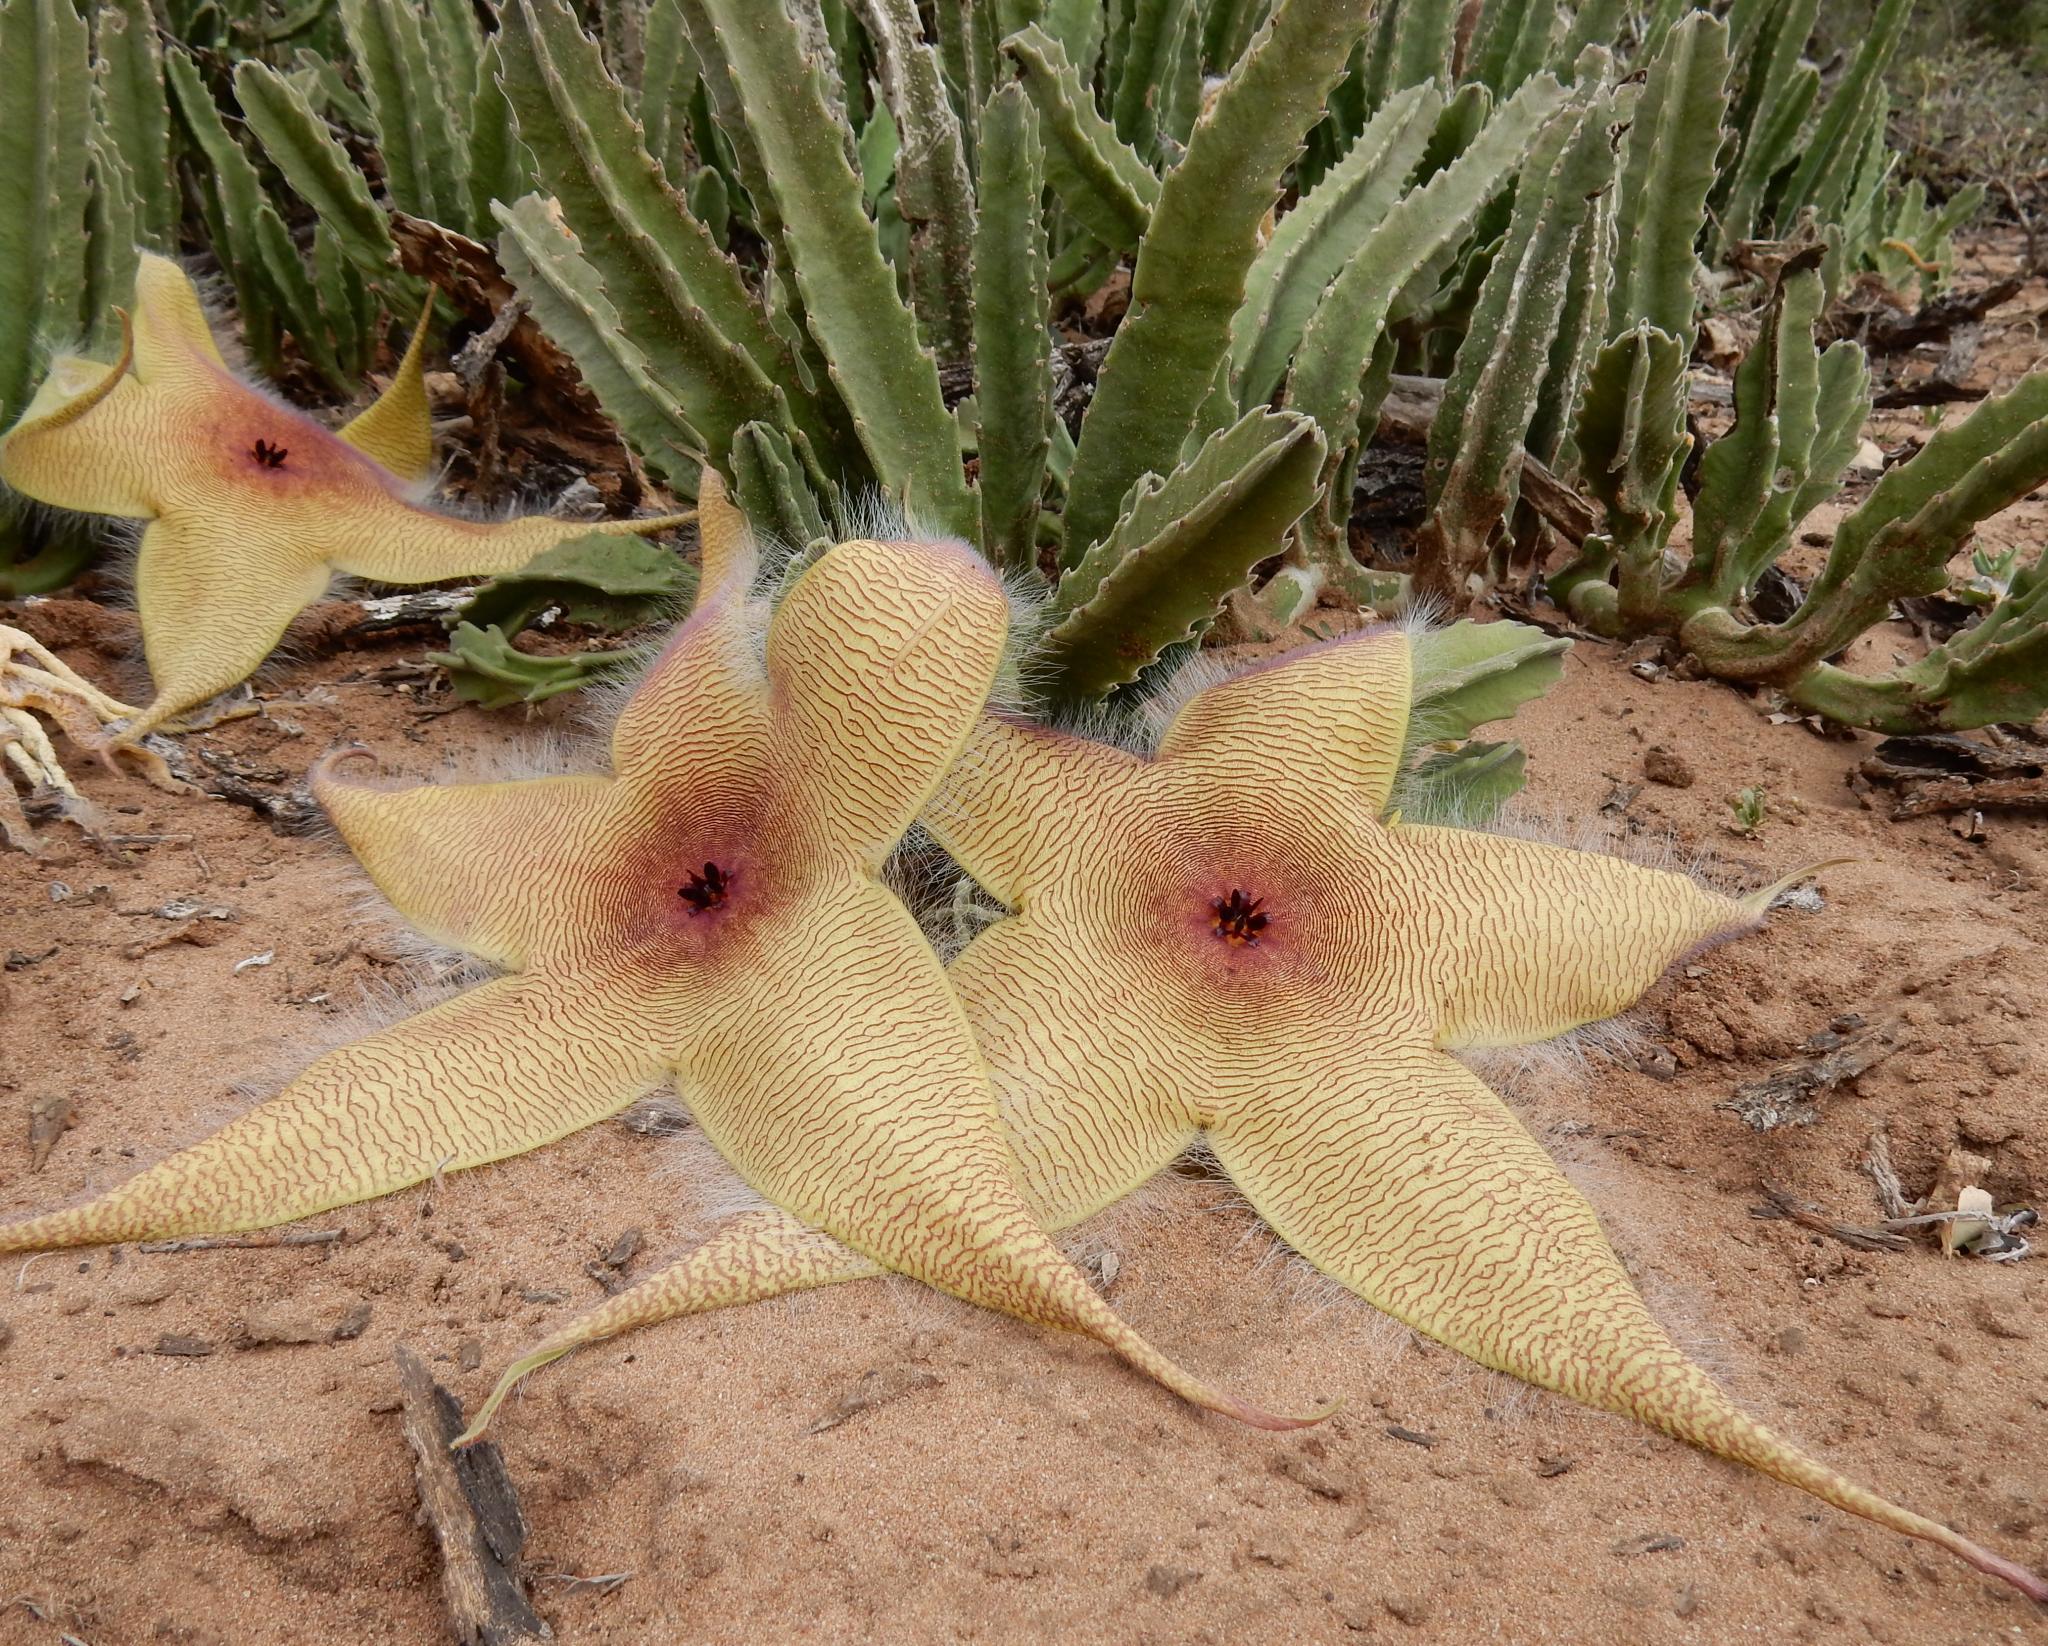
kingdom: Plantae
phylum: Tracheophyta
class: Magnoliopsida
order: Gentianales
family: Apocynaceae
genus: Ceropegia
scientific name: Ceropegia gigantea
